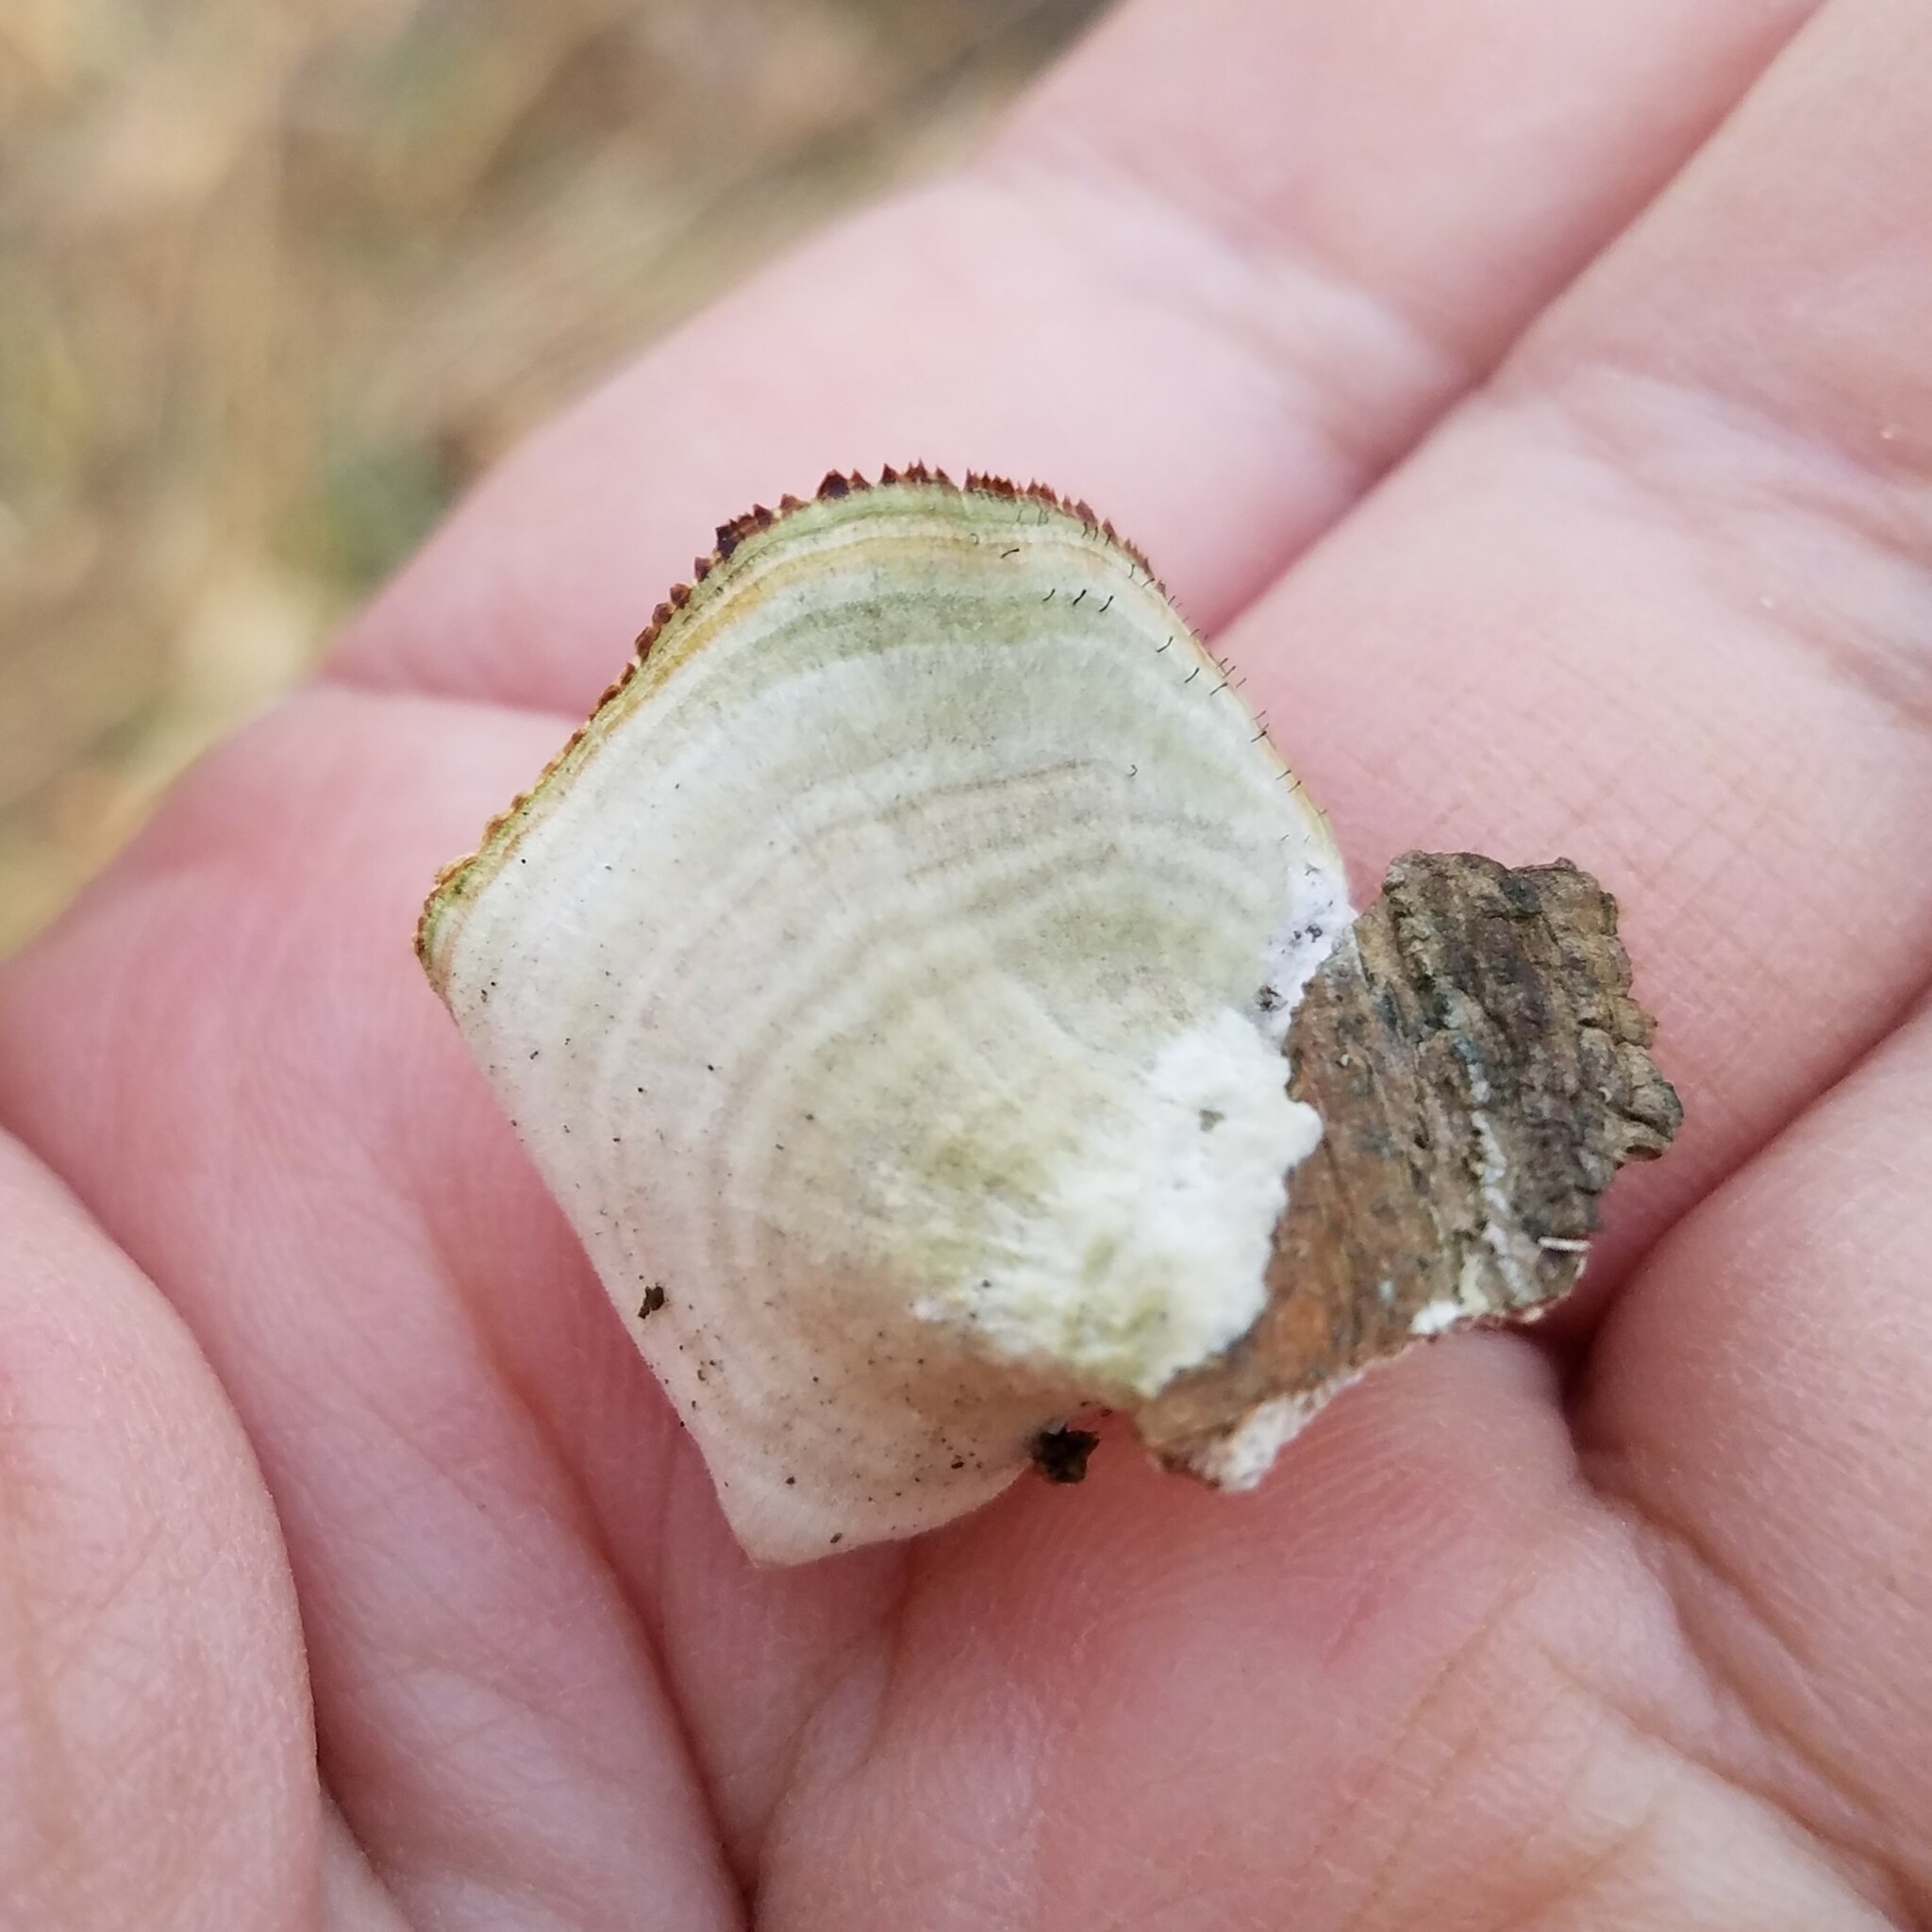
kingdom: Fungi
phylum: Ascomycota
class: Eurotiomycetes
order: Mycocaliciales
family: Mycocaliciaceae
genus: Phaeocalicium
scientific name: Phaeocalicium polyporaeum
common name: Fairy pins
